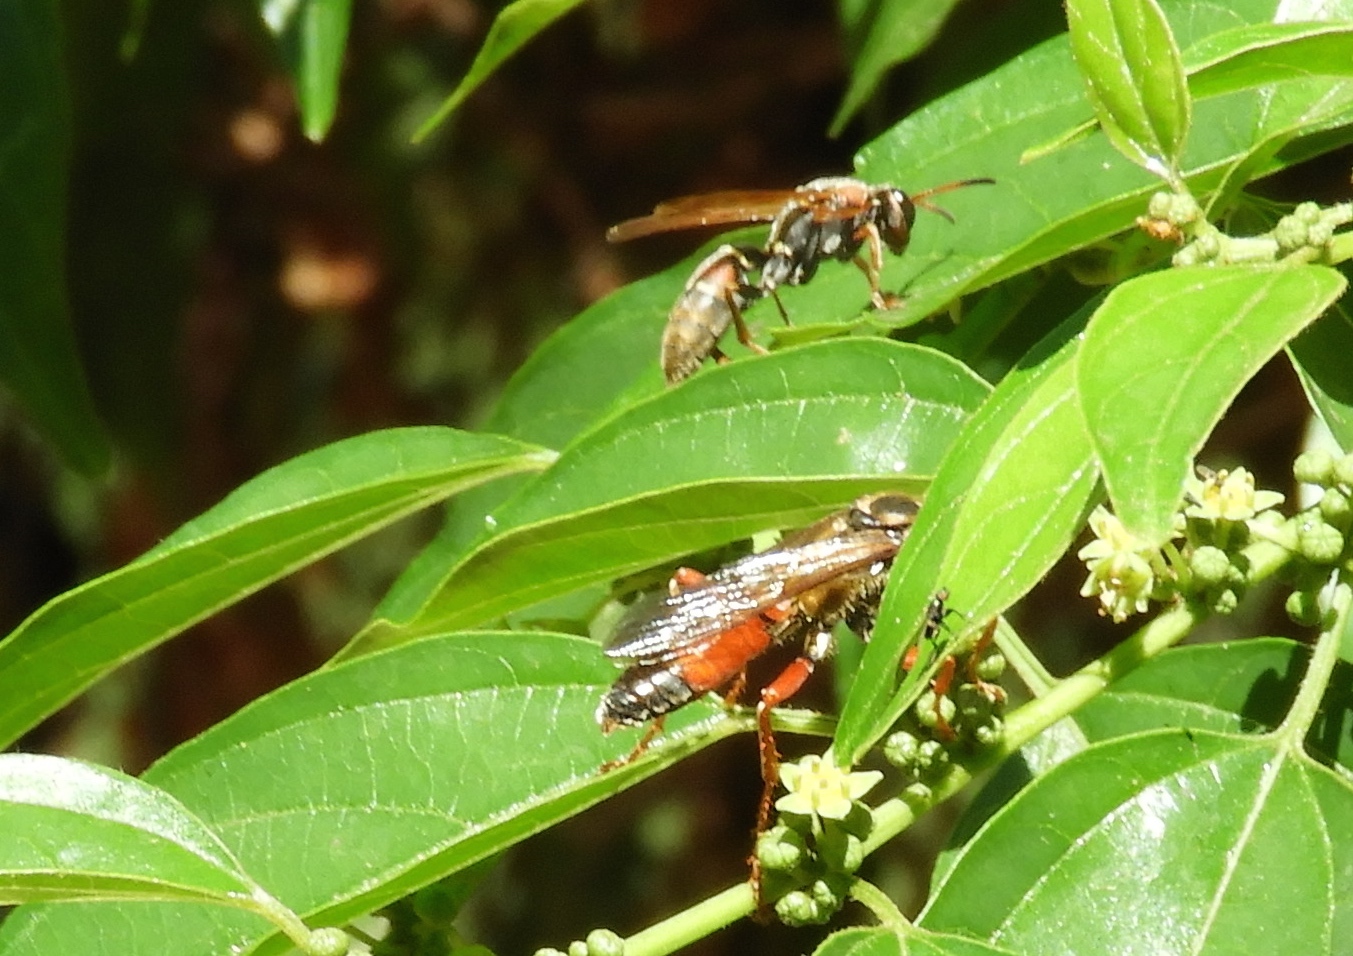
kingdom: Animalia
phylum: Arthropoda
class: Insecta
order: Hymenoptera
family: Sphecidae
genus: Sphex
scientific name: Sphex ichneumoneus
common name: Great golden digger wasp
